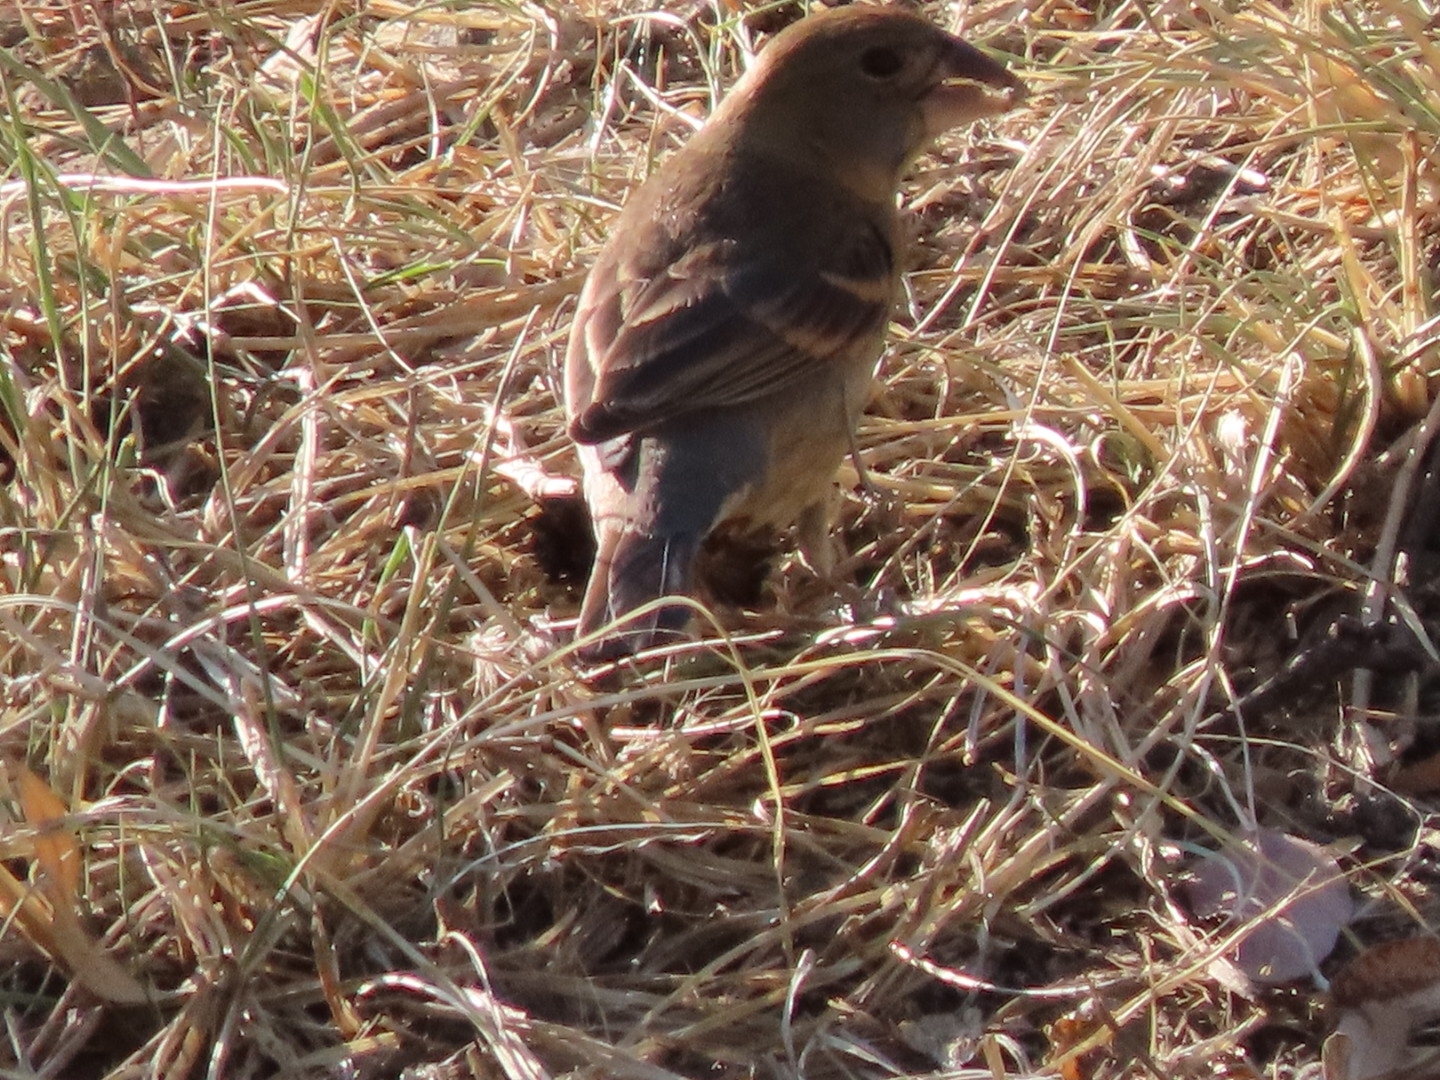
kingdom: Animalia
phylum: Chordata
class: Aves
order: Passeriformes
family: Cardinalidae
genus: Passerina
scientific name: Passerina caerulea
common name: Blue grosbeak
